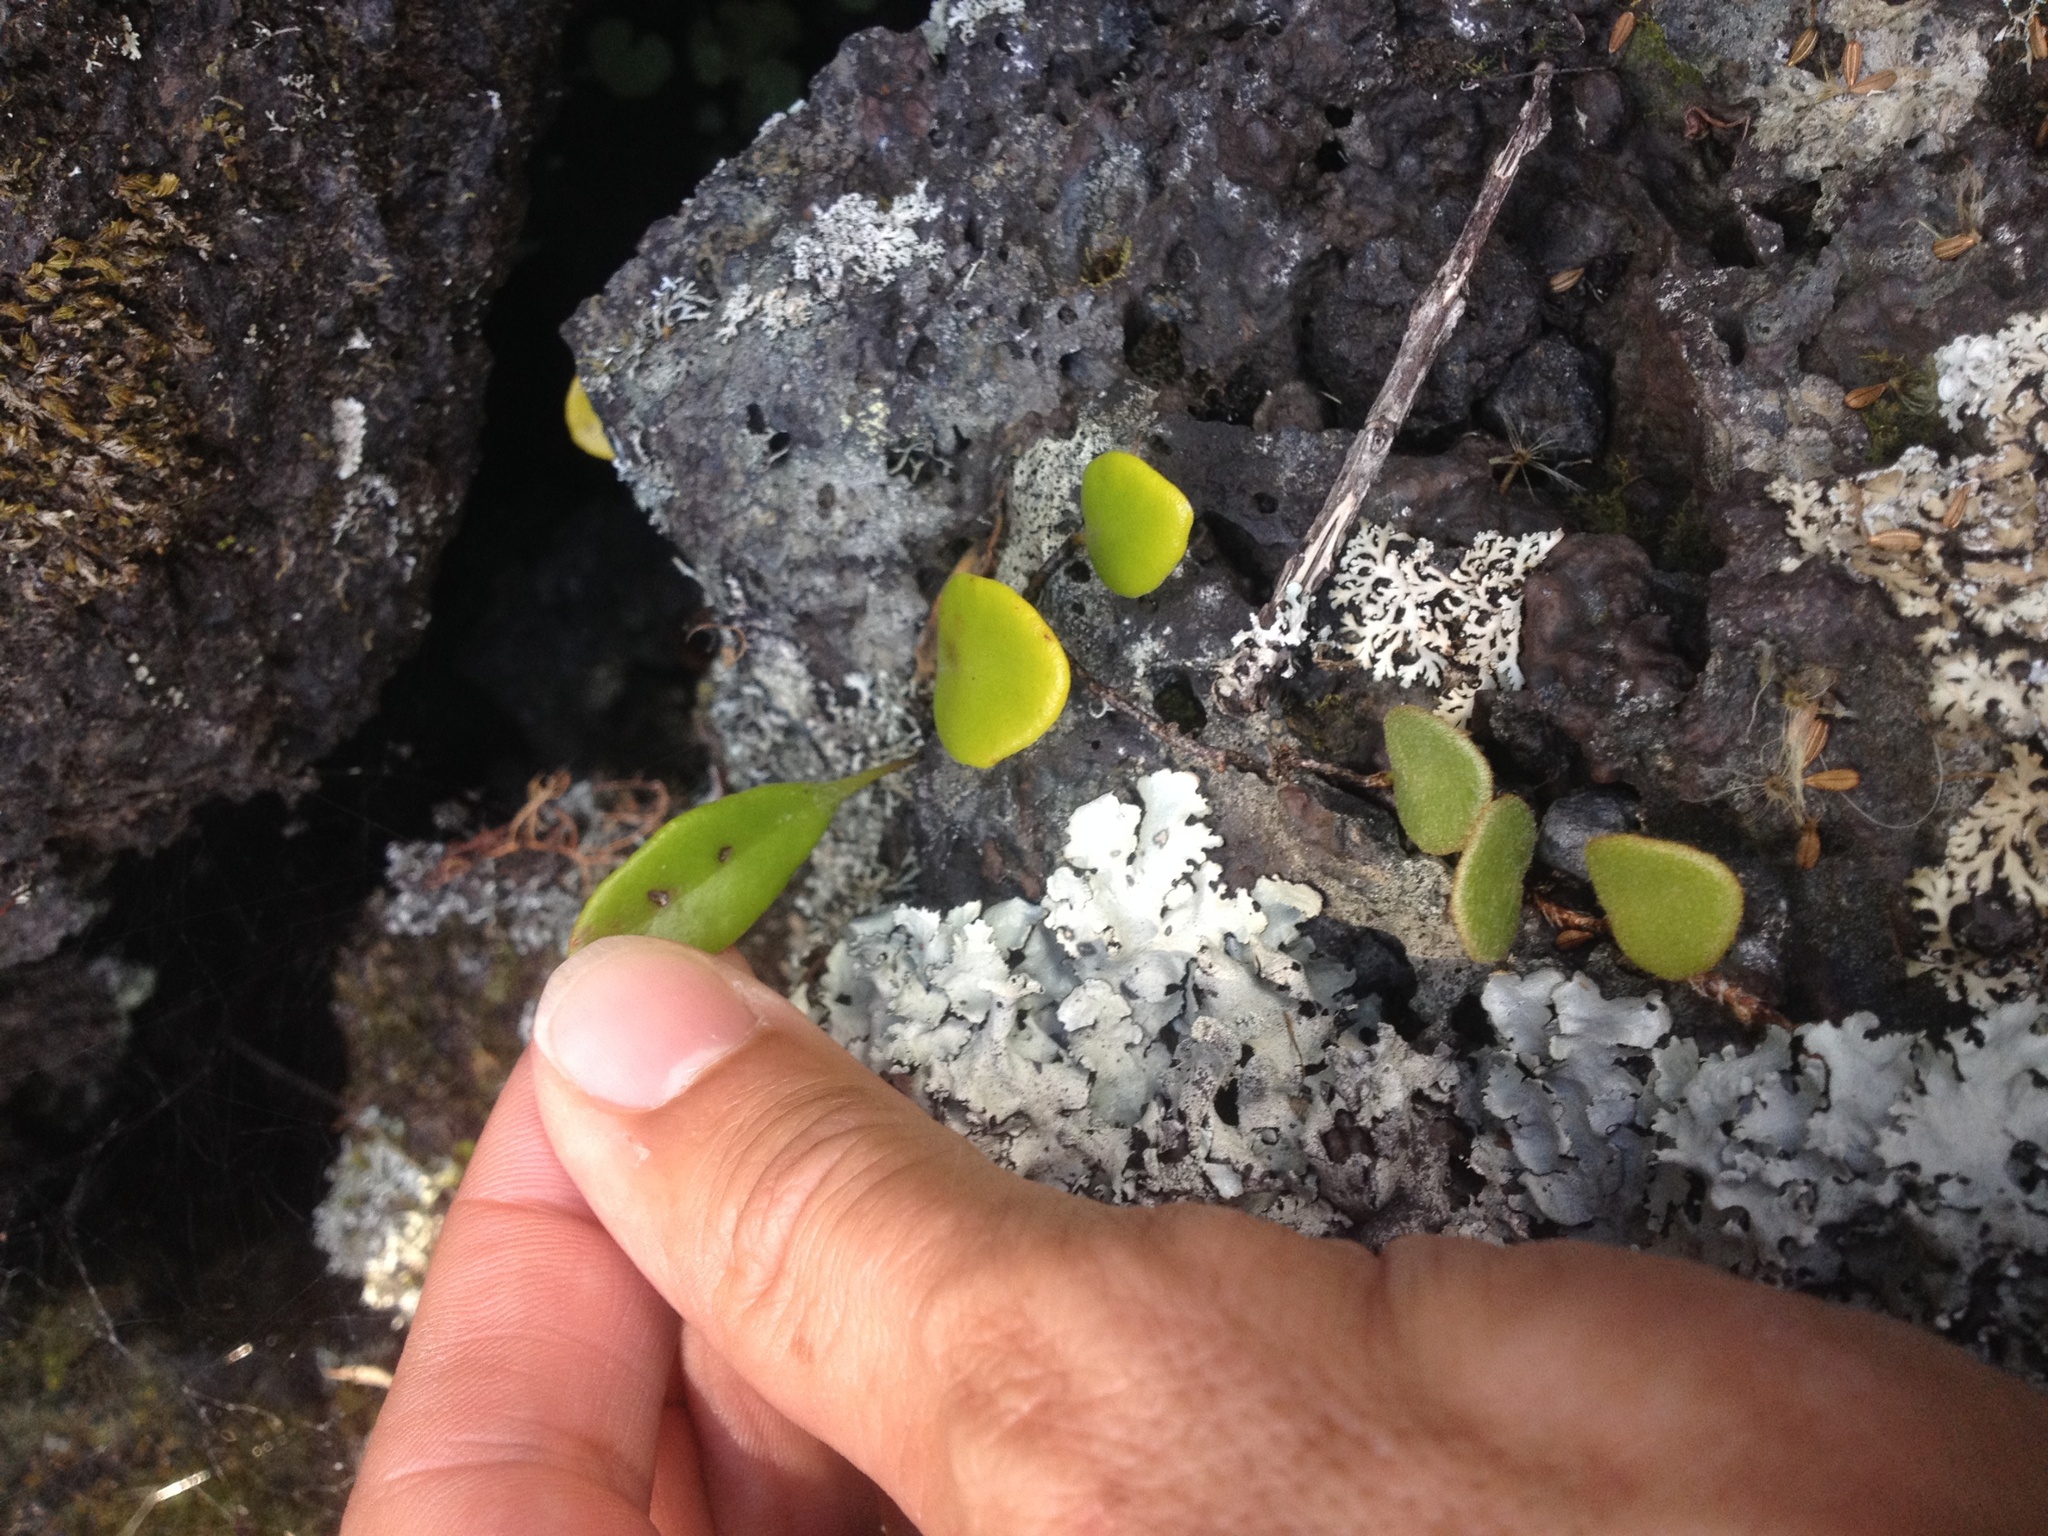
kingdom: Plantae
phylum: Tracheophyta
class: Polypodiopsida
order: Polypodiales
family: Polypodiaceae
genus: Pyrrosia
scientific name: Pyrrosia eleagnifolia
